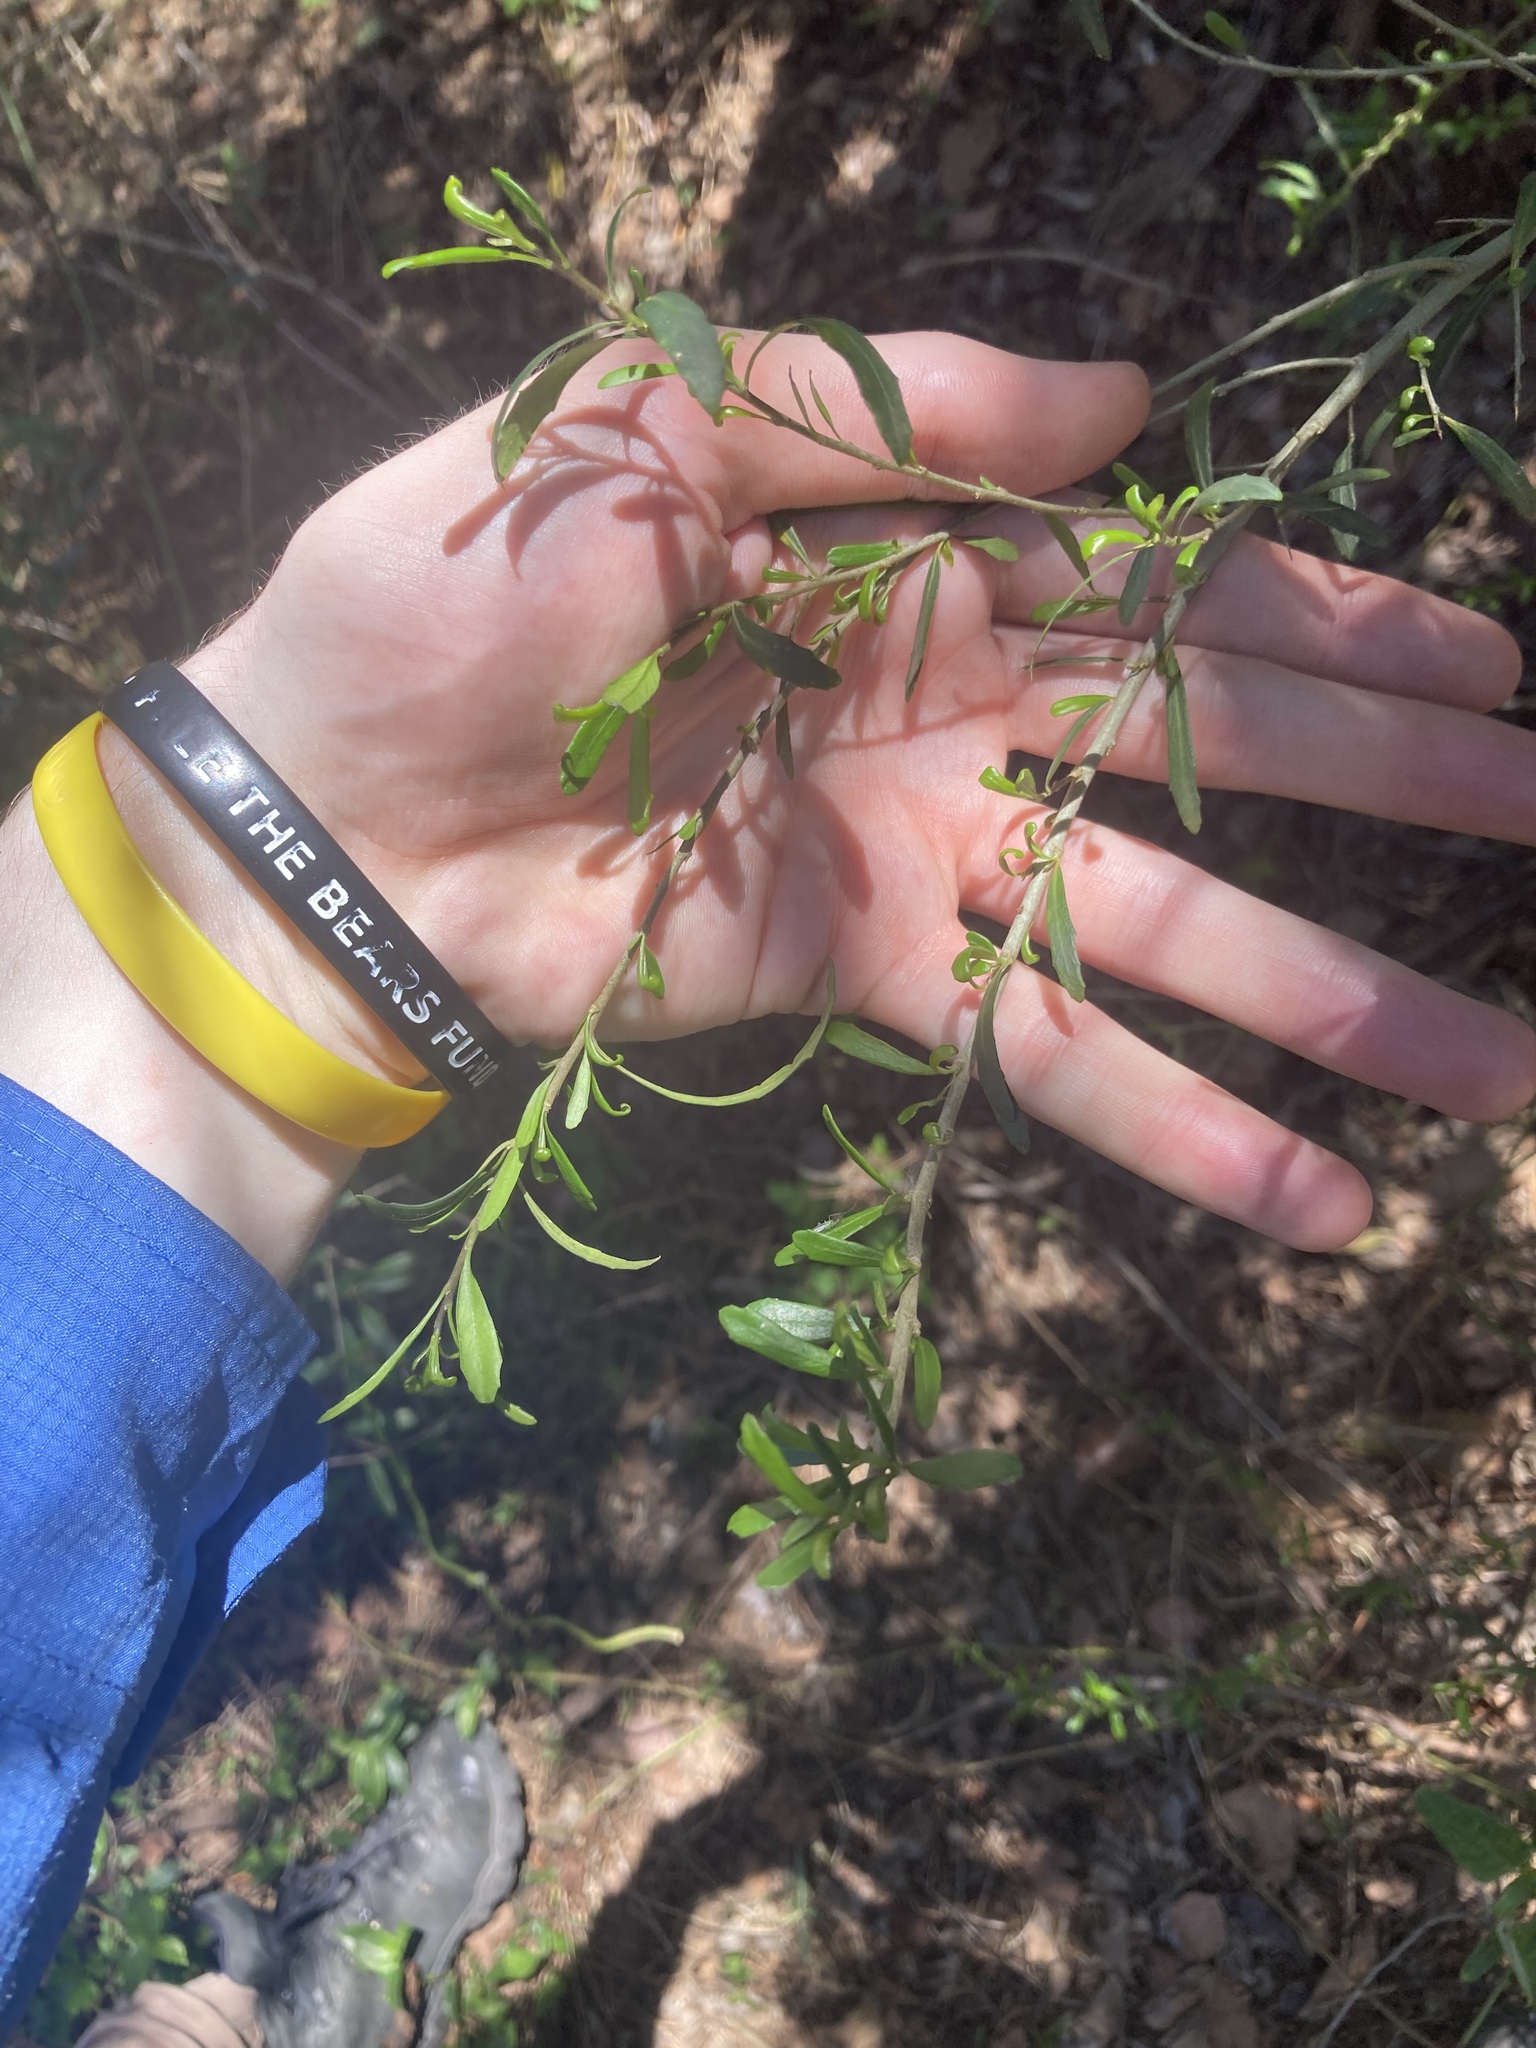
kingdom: Plantae
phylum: Tracheophyta
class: Magnoliopsida
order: Malpighiales
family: Violaceae
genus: Melicytus
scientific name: Melicytus dentatus
